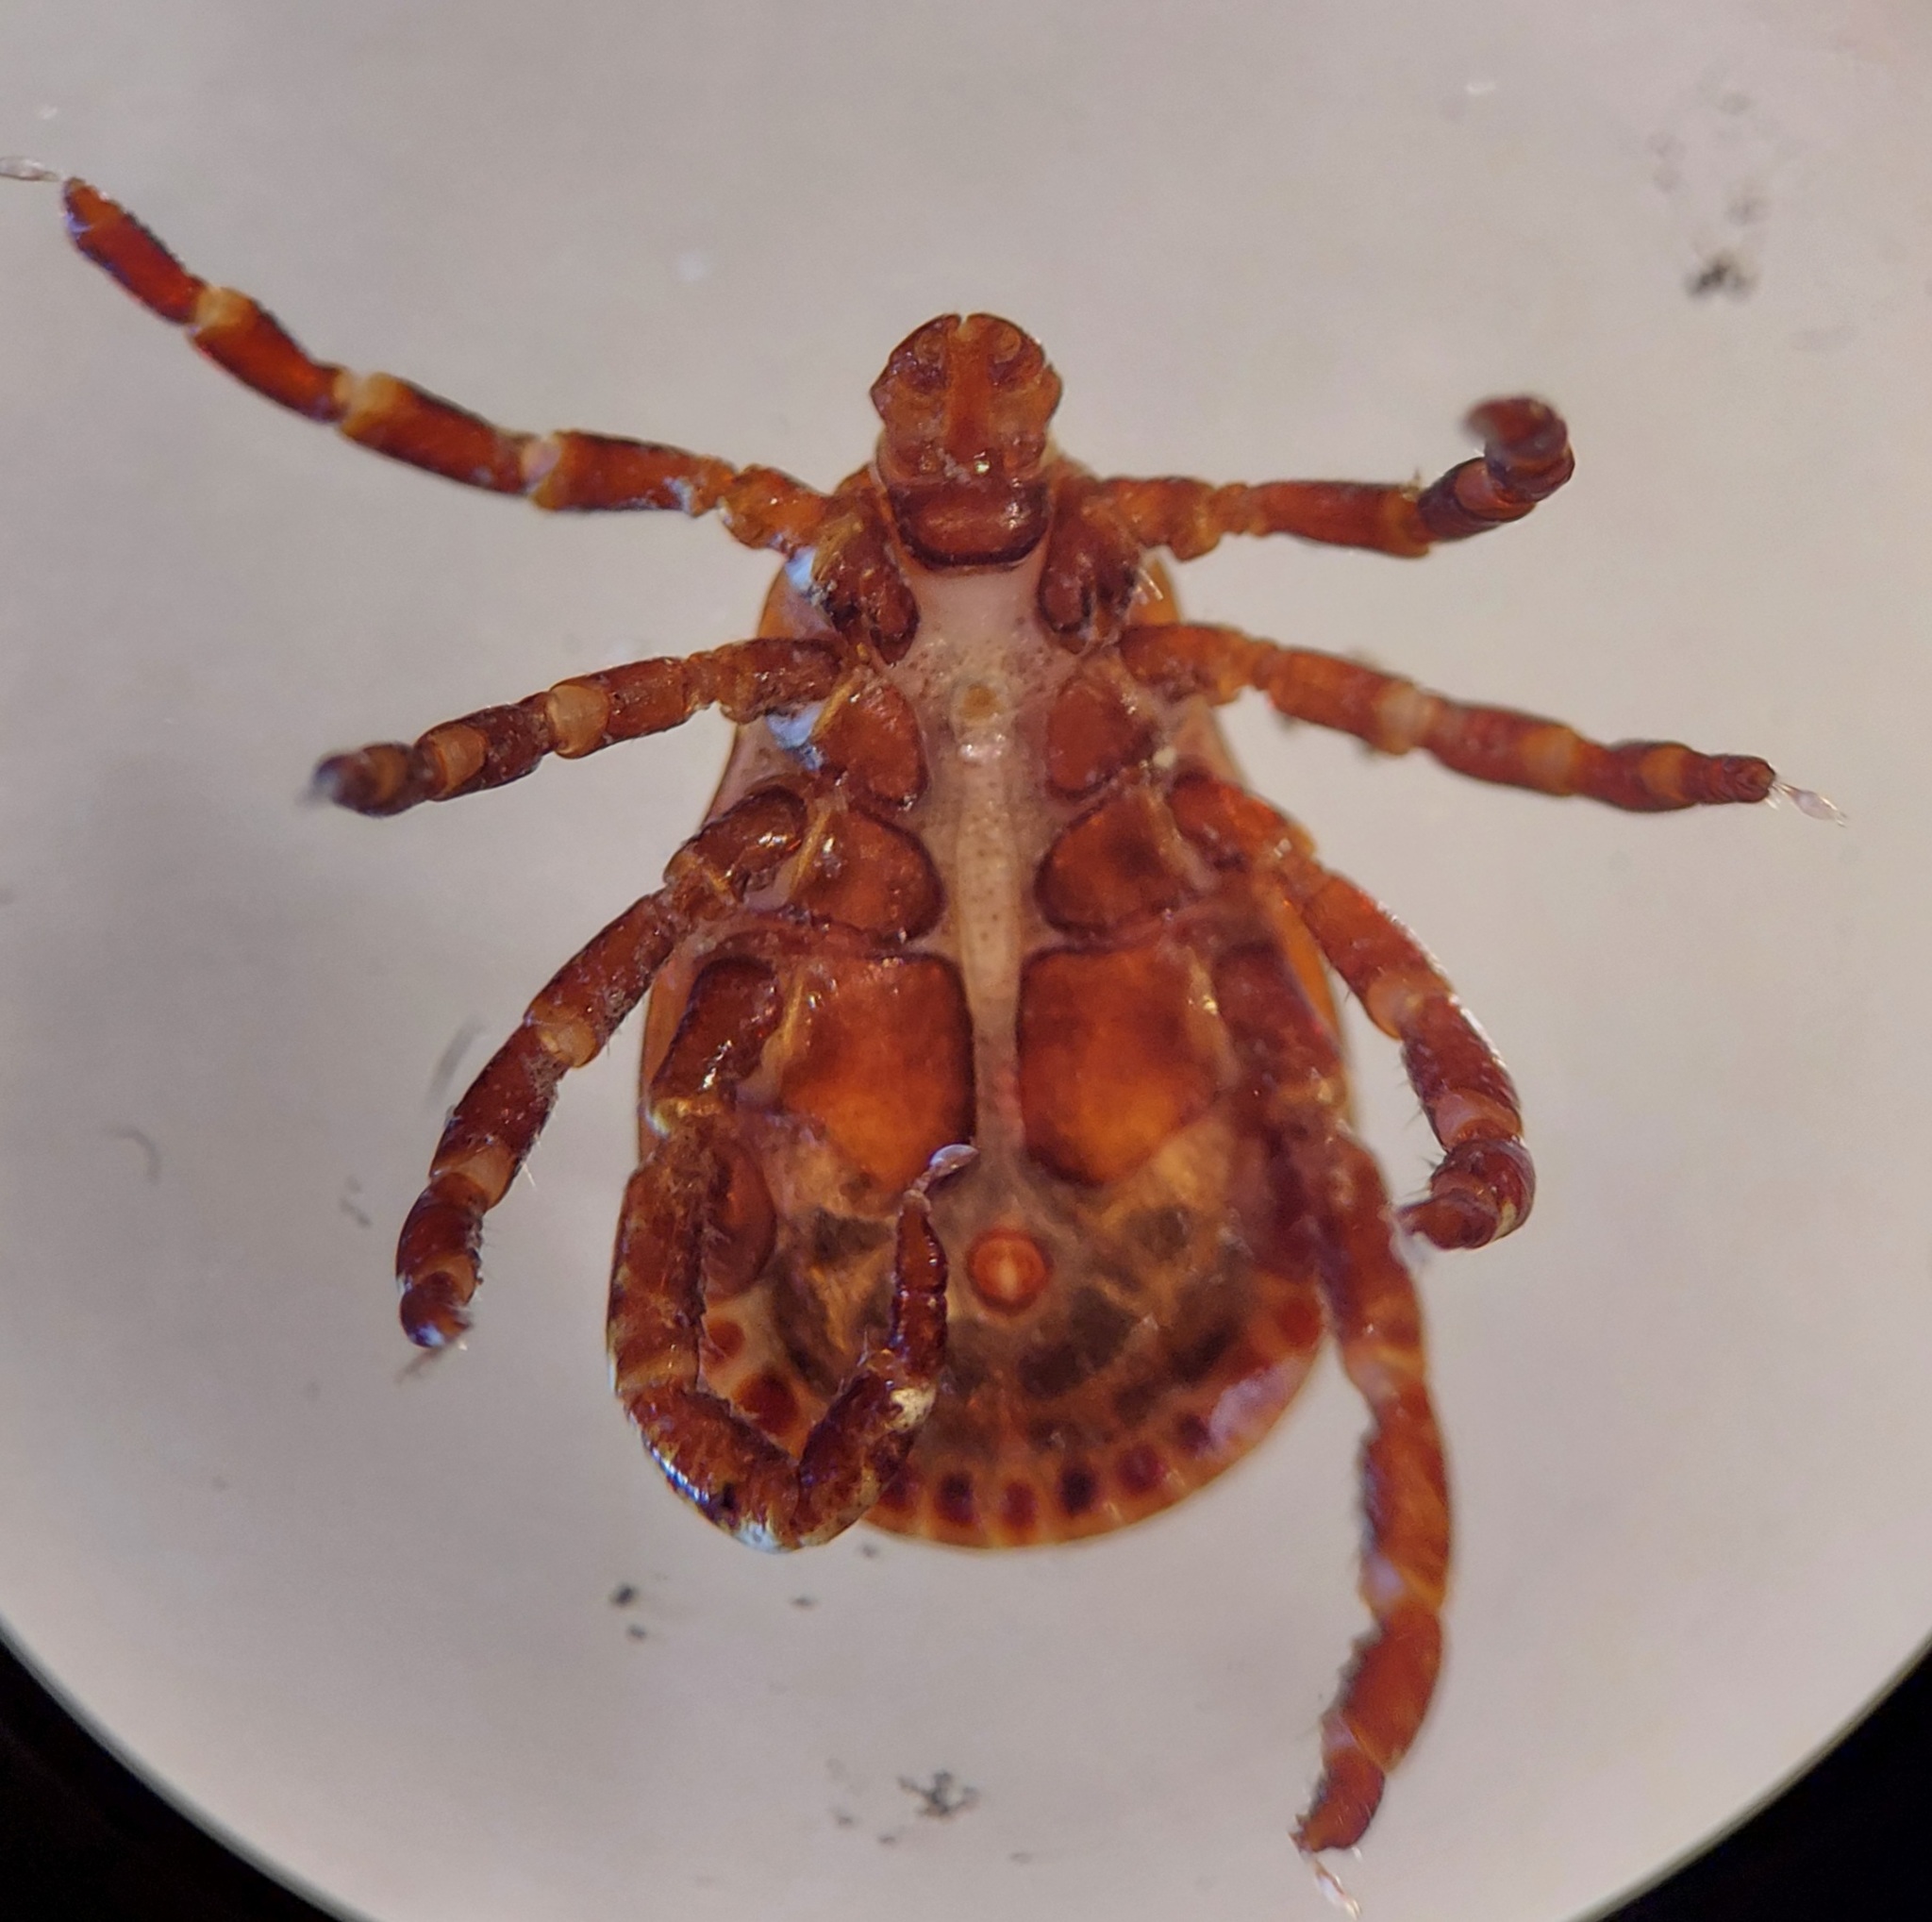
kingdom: Animalia
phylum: Arthropoda
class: Arachnida
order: Ixodida
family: Ixodidae
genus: Dermacentor
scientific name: Dermacentor variabilis
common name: American dog tick
